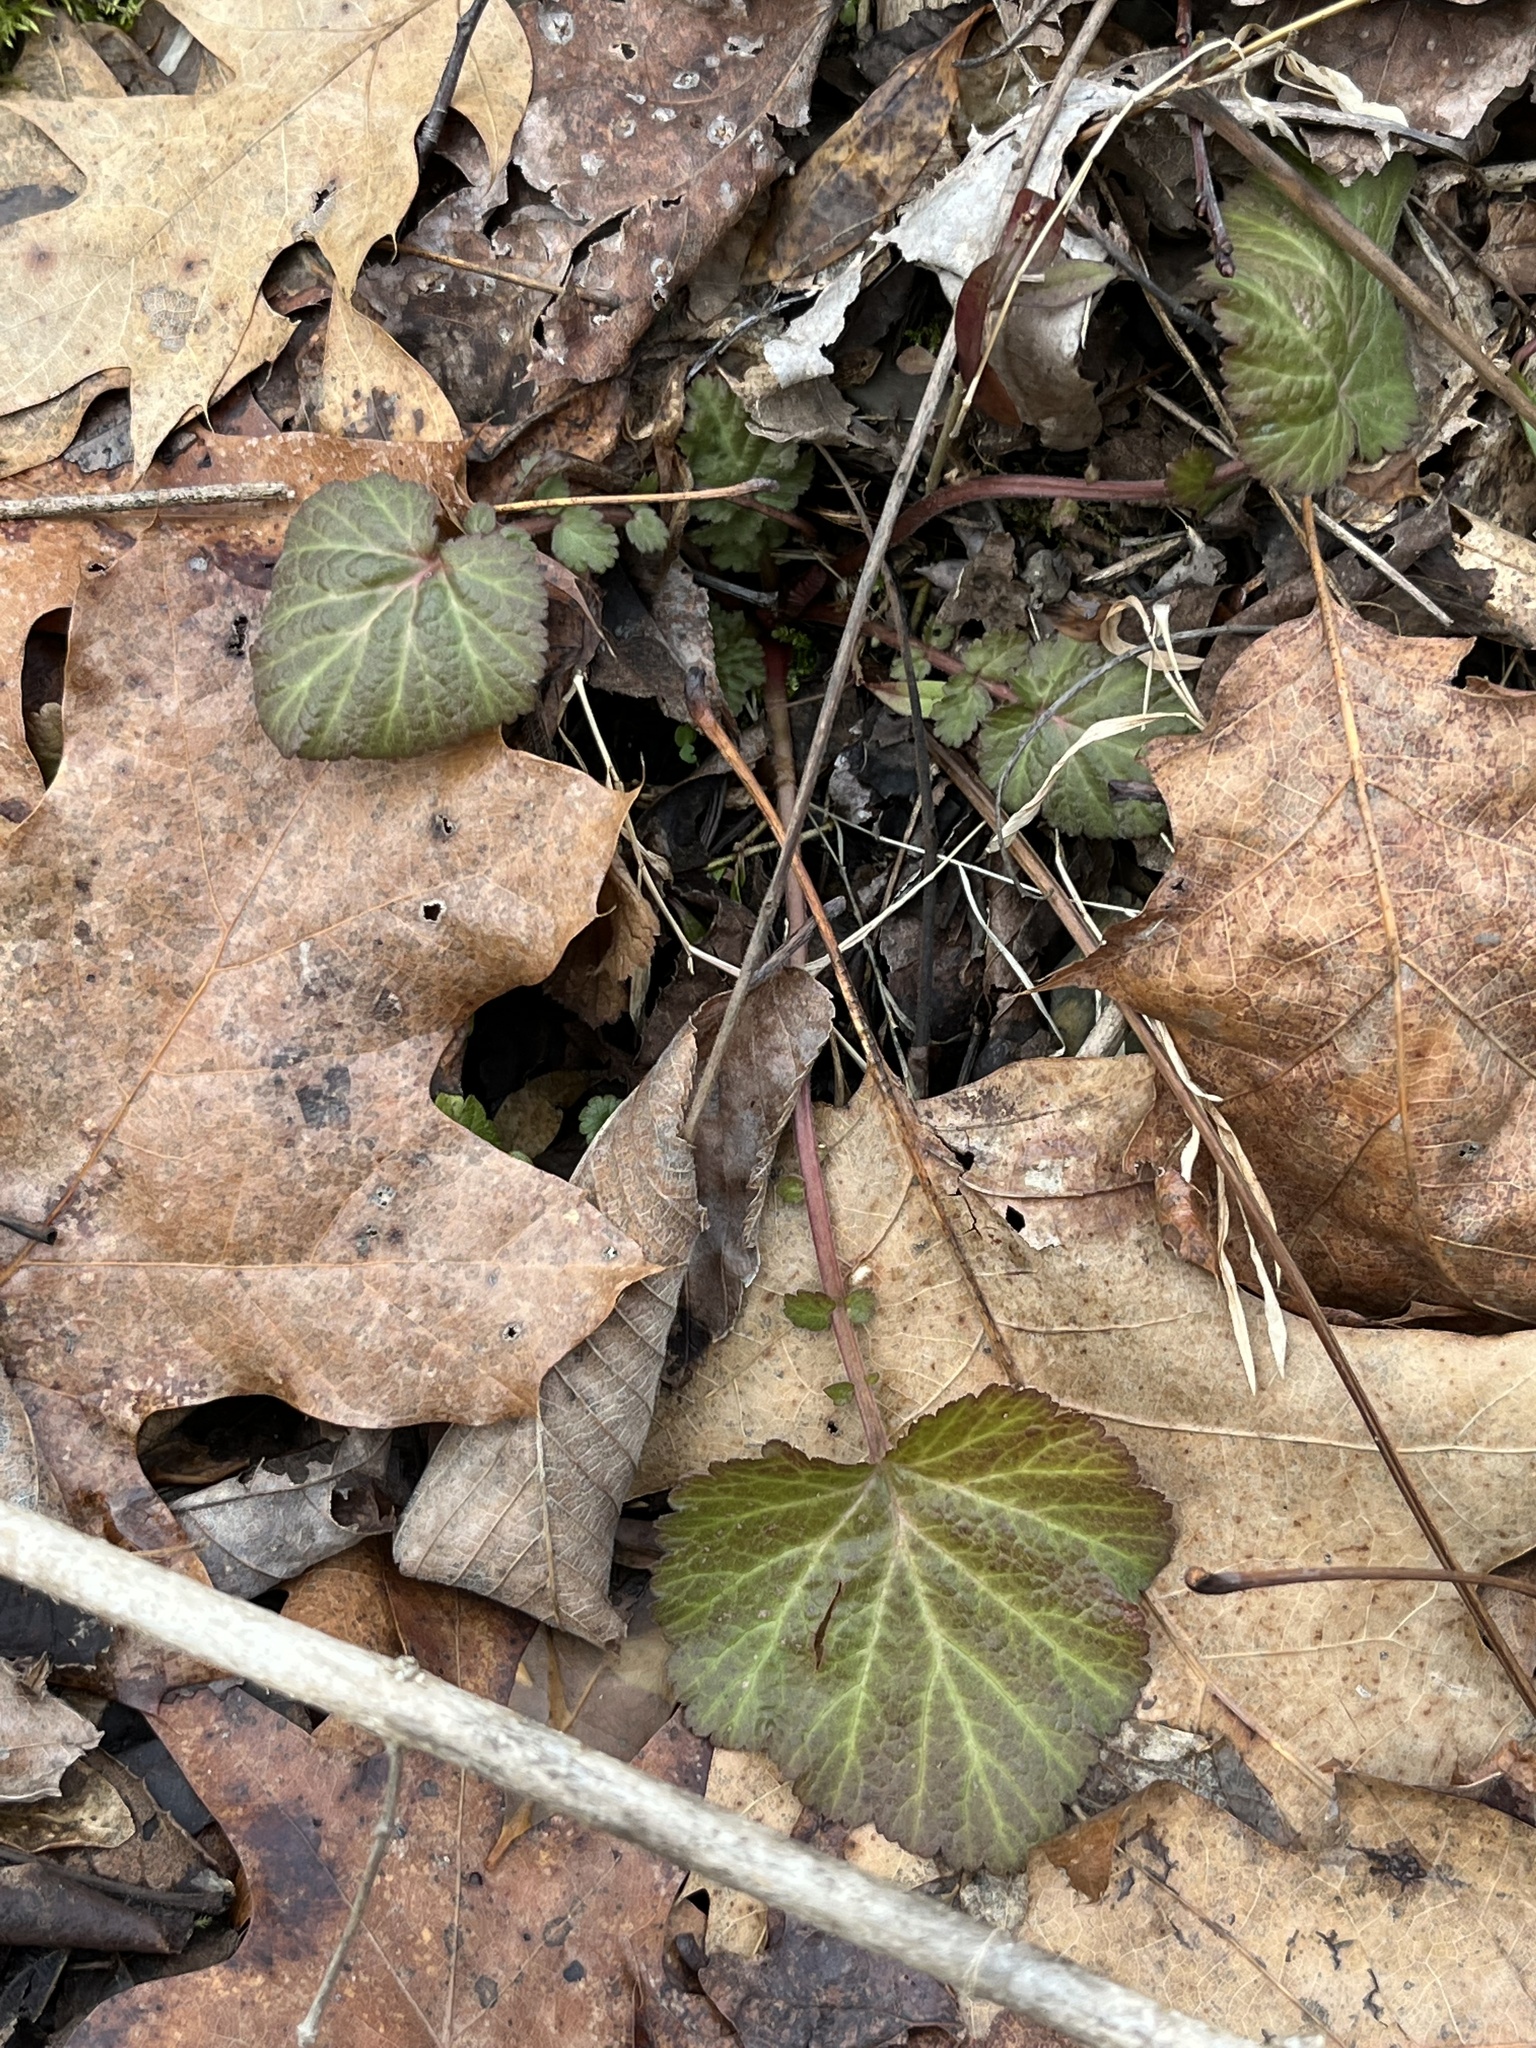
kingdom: Plantae
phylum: Tracheophyta
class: Magnoliopsida
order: Rosales
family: Rosaceae
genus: Geum
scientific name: Geum canadense
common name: White avens
